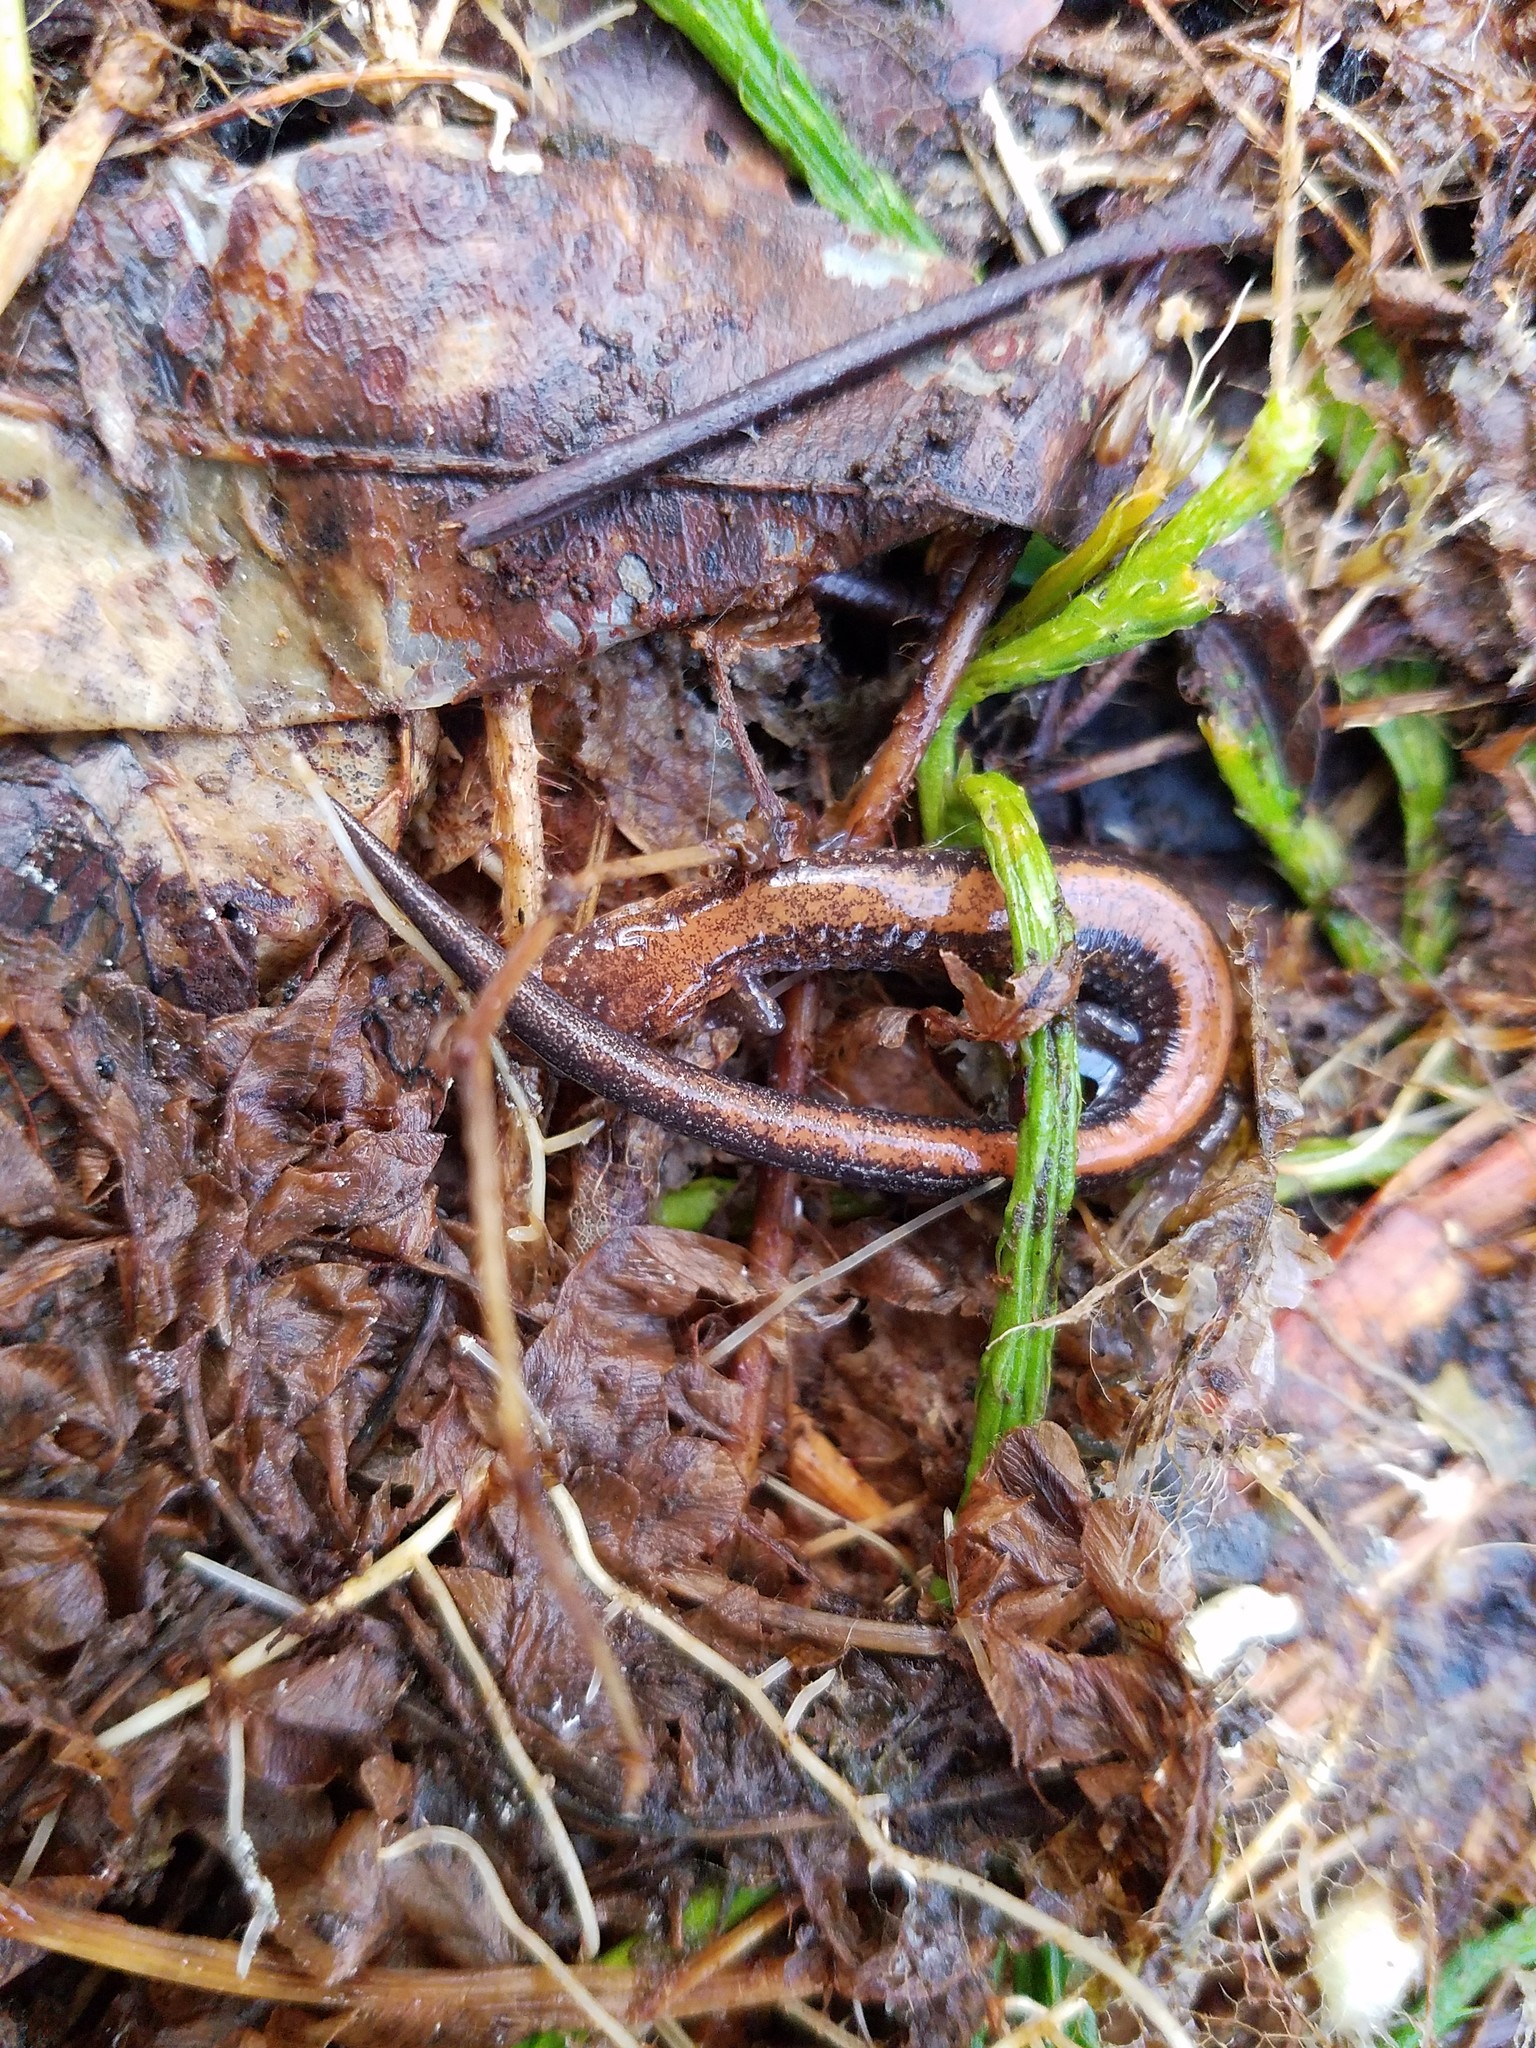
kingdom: Animalia
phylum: Chordata
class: Amphibia
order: Caudata
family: Plethodontidae
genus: Plethodon
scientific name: Plethodon cinereus
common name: Redback salamander
